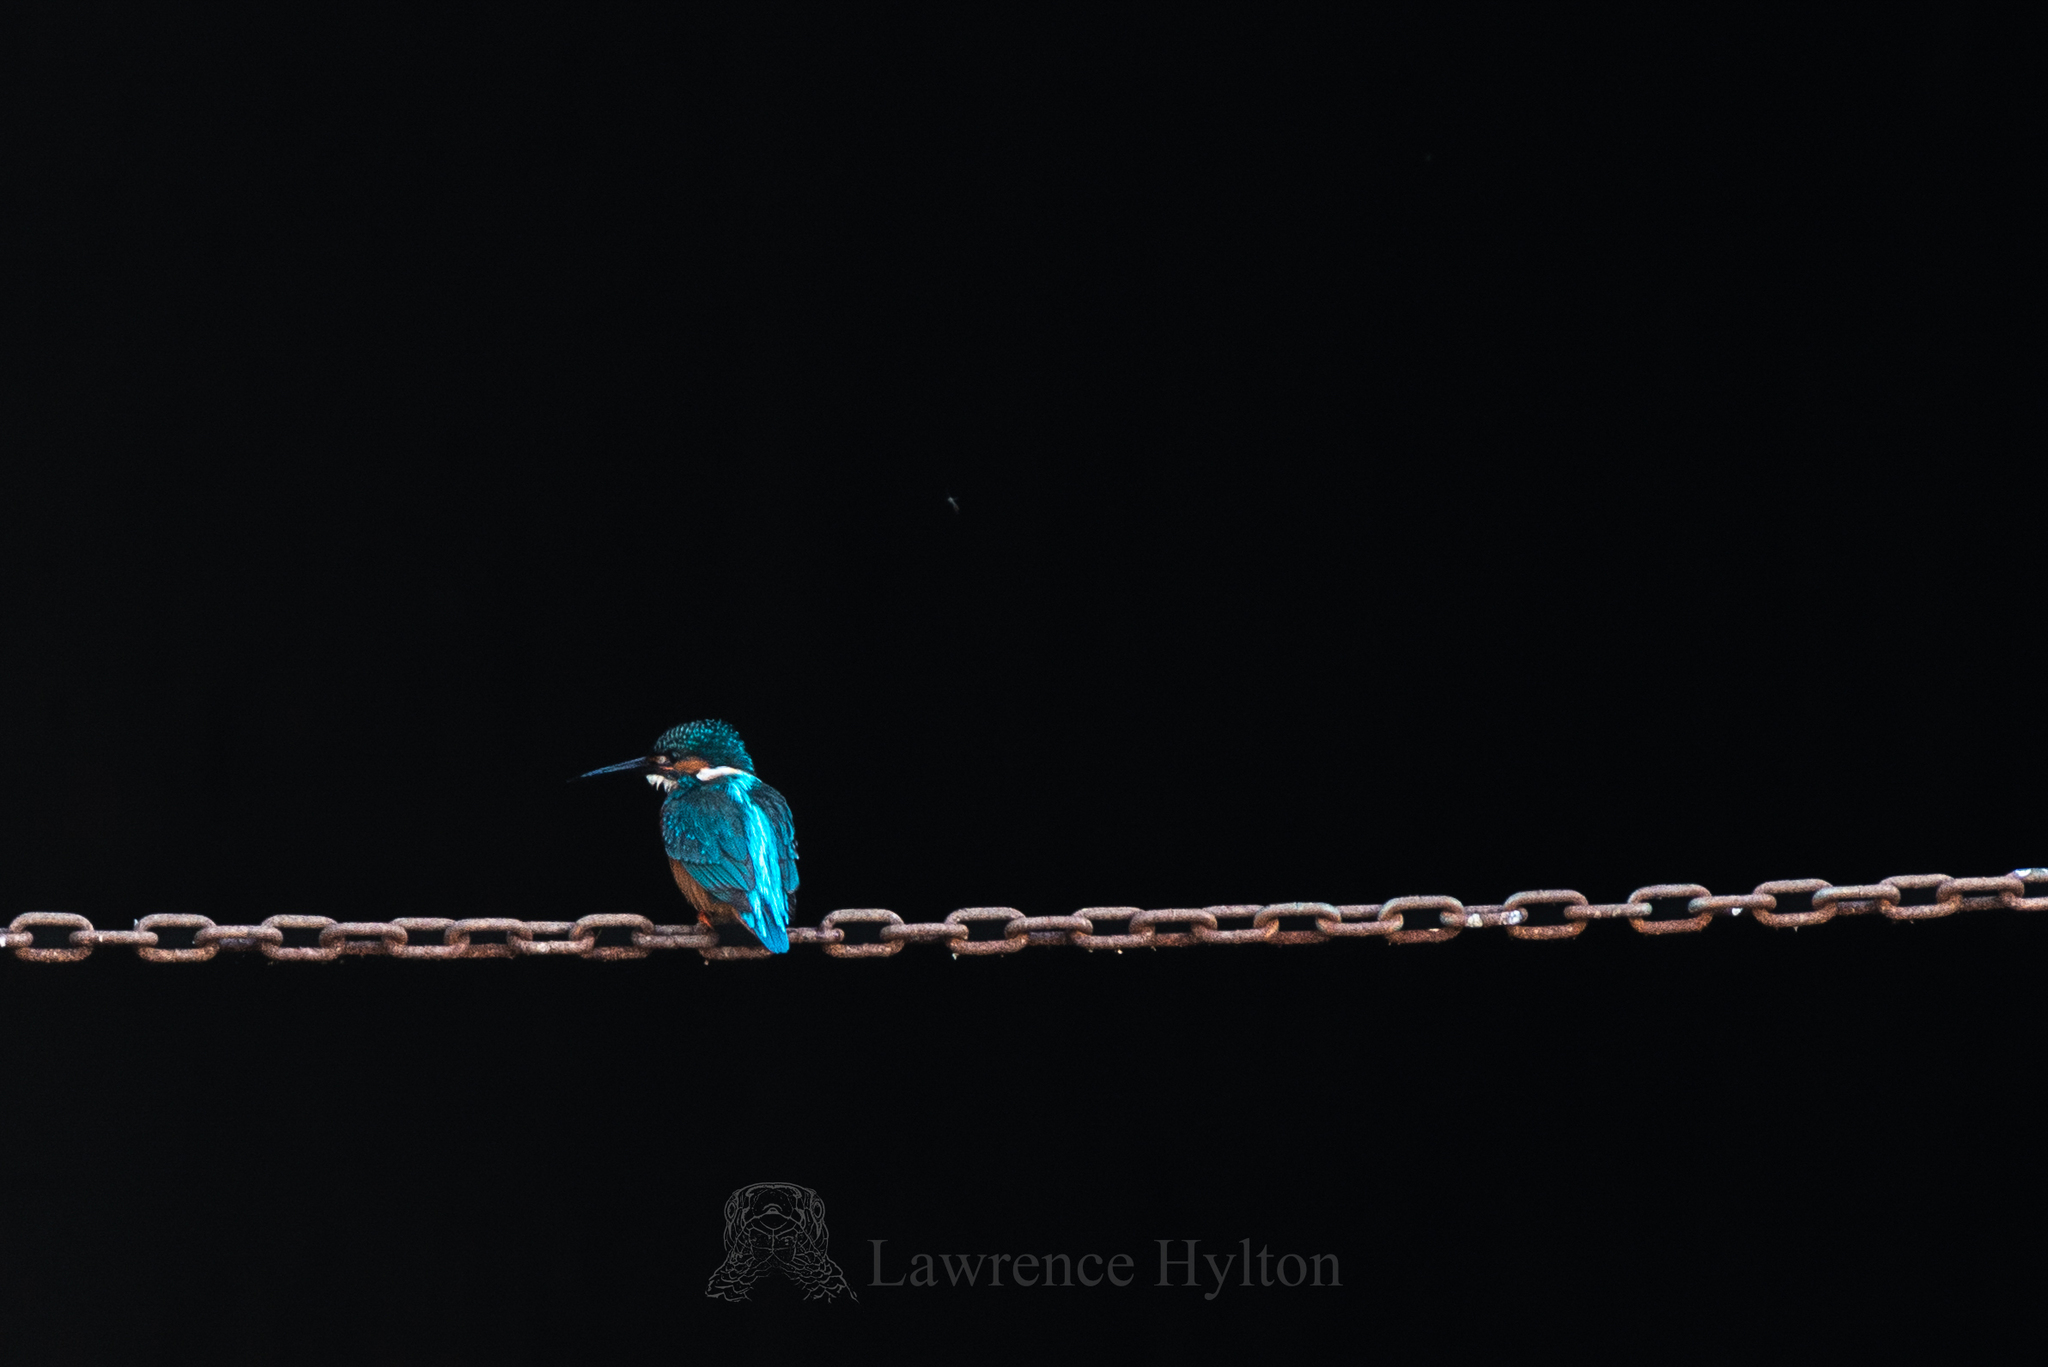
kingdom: Animalia
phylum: Chordata
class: Aves
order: Coraciiformes
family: Alcedinidae
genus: Alcedo
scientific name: Alcedo atthis
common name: Common kingfisher
